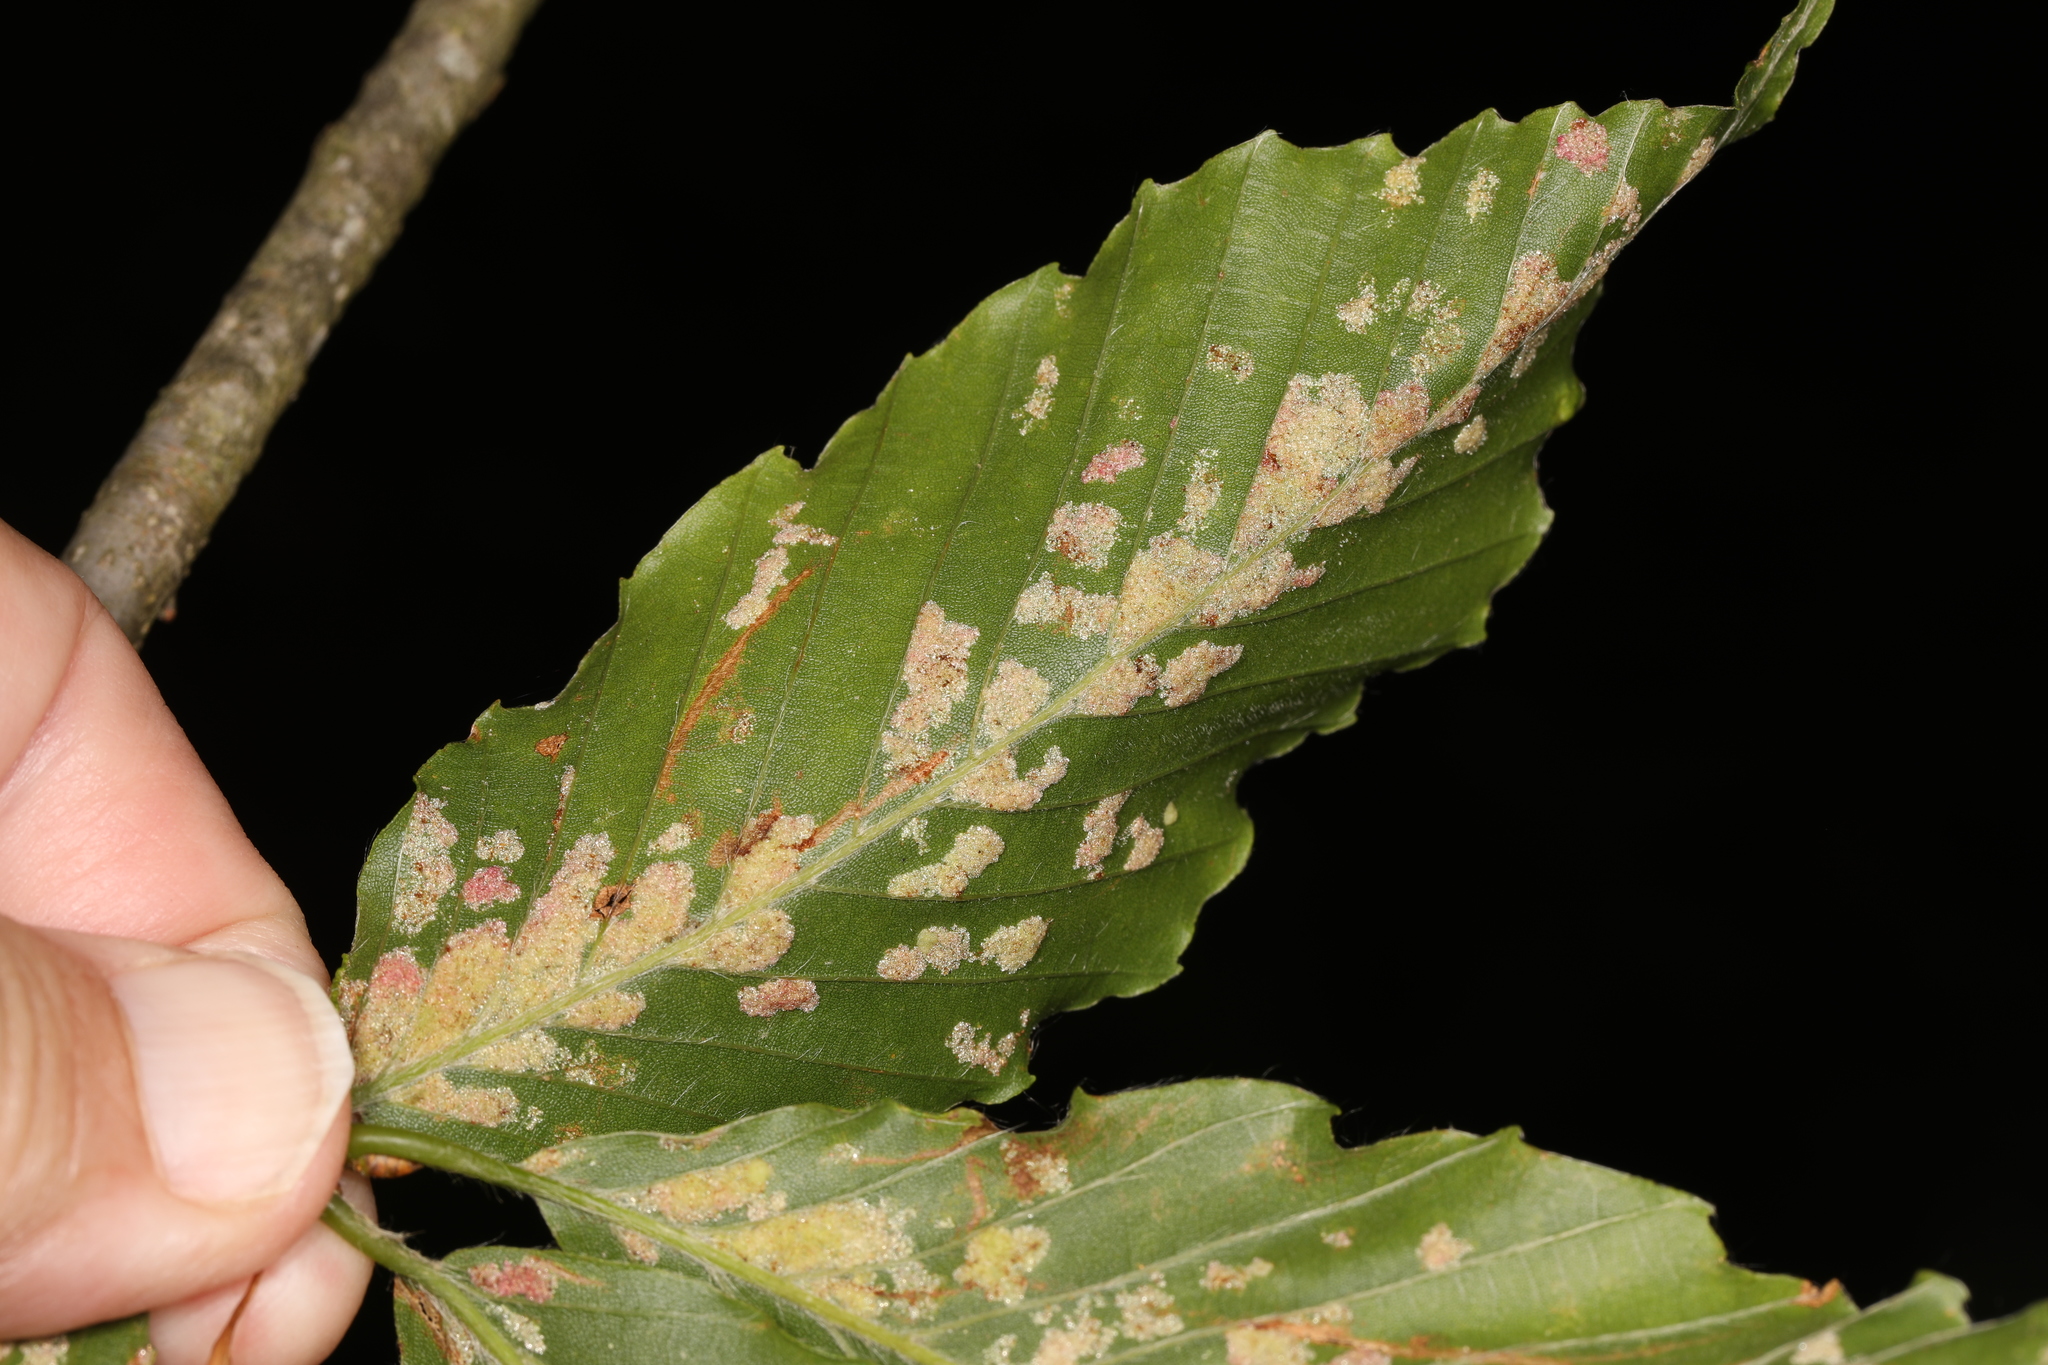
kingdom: Animalia
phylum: Arthropoda
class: Arachnida
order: Trombidiformes
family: Eriophyidae
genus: Acalitus
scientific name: Acalitus
